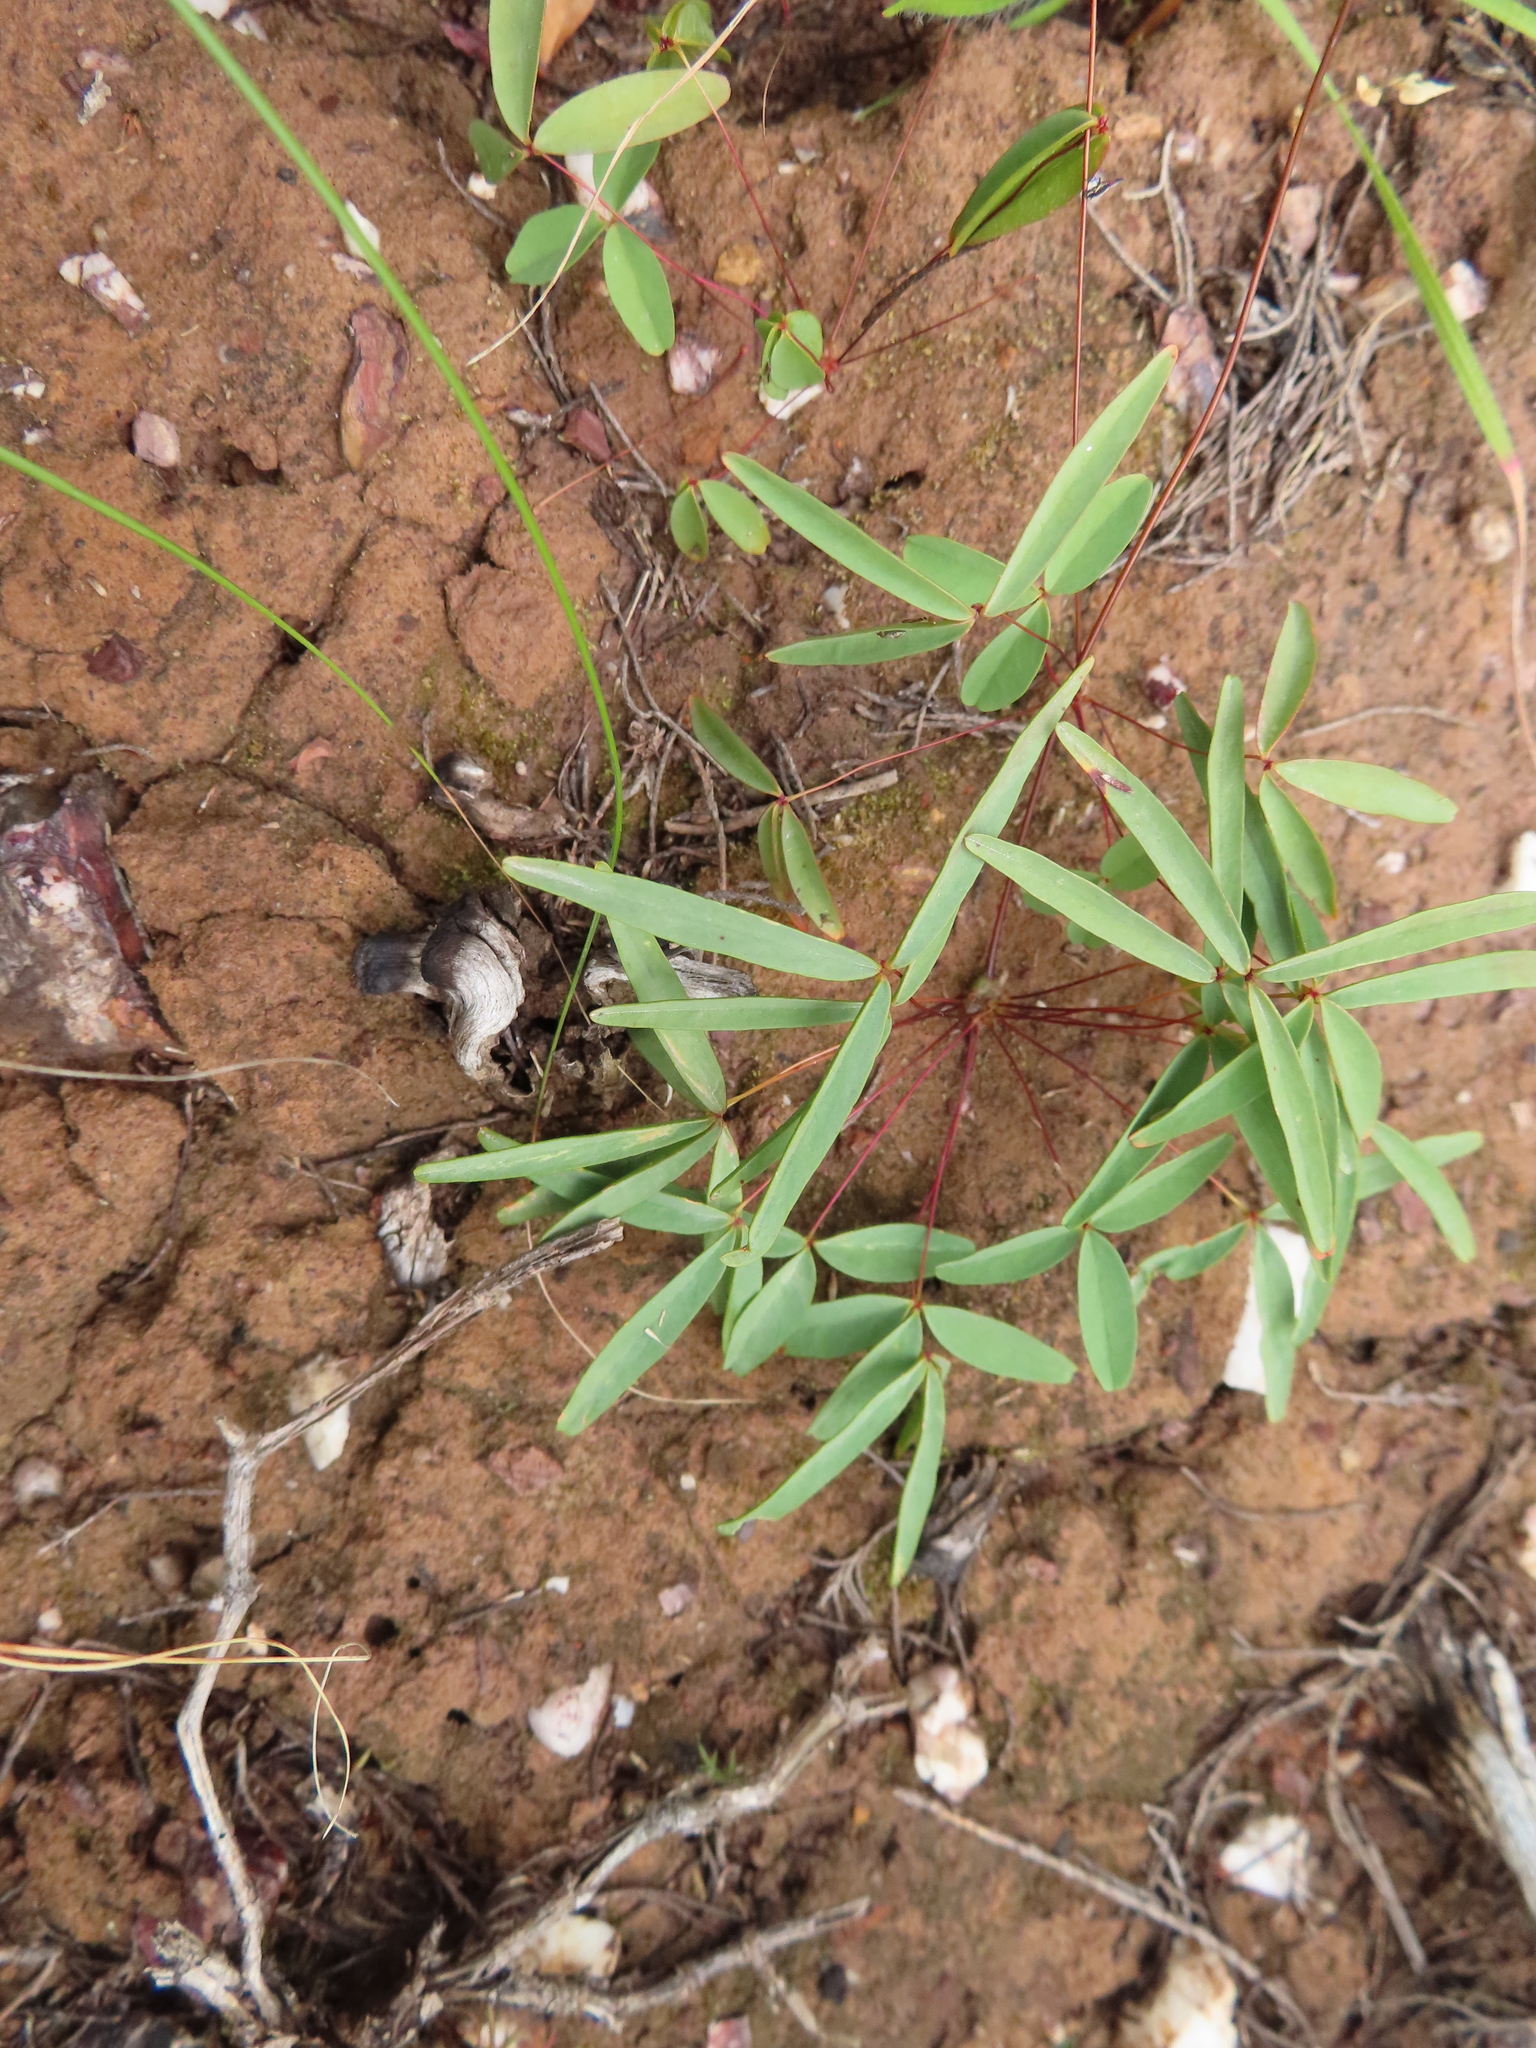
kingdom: Plantae
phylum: Tracheophyta
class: Magnoliopsida
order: Oxalidales
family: Oxalidaceae
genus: Oxalis
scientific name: Oxalis duriuscula
